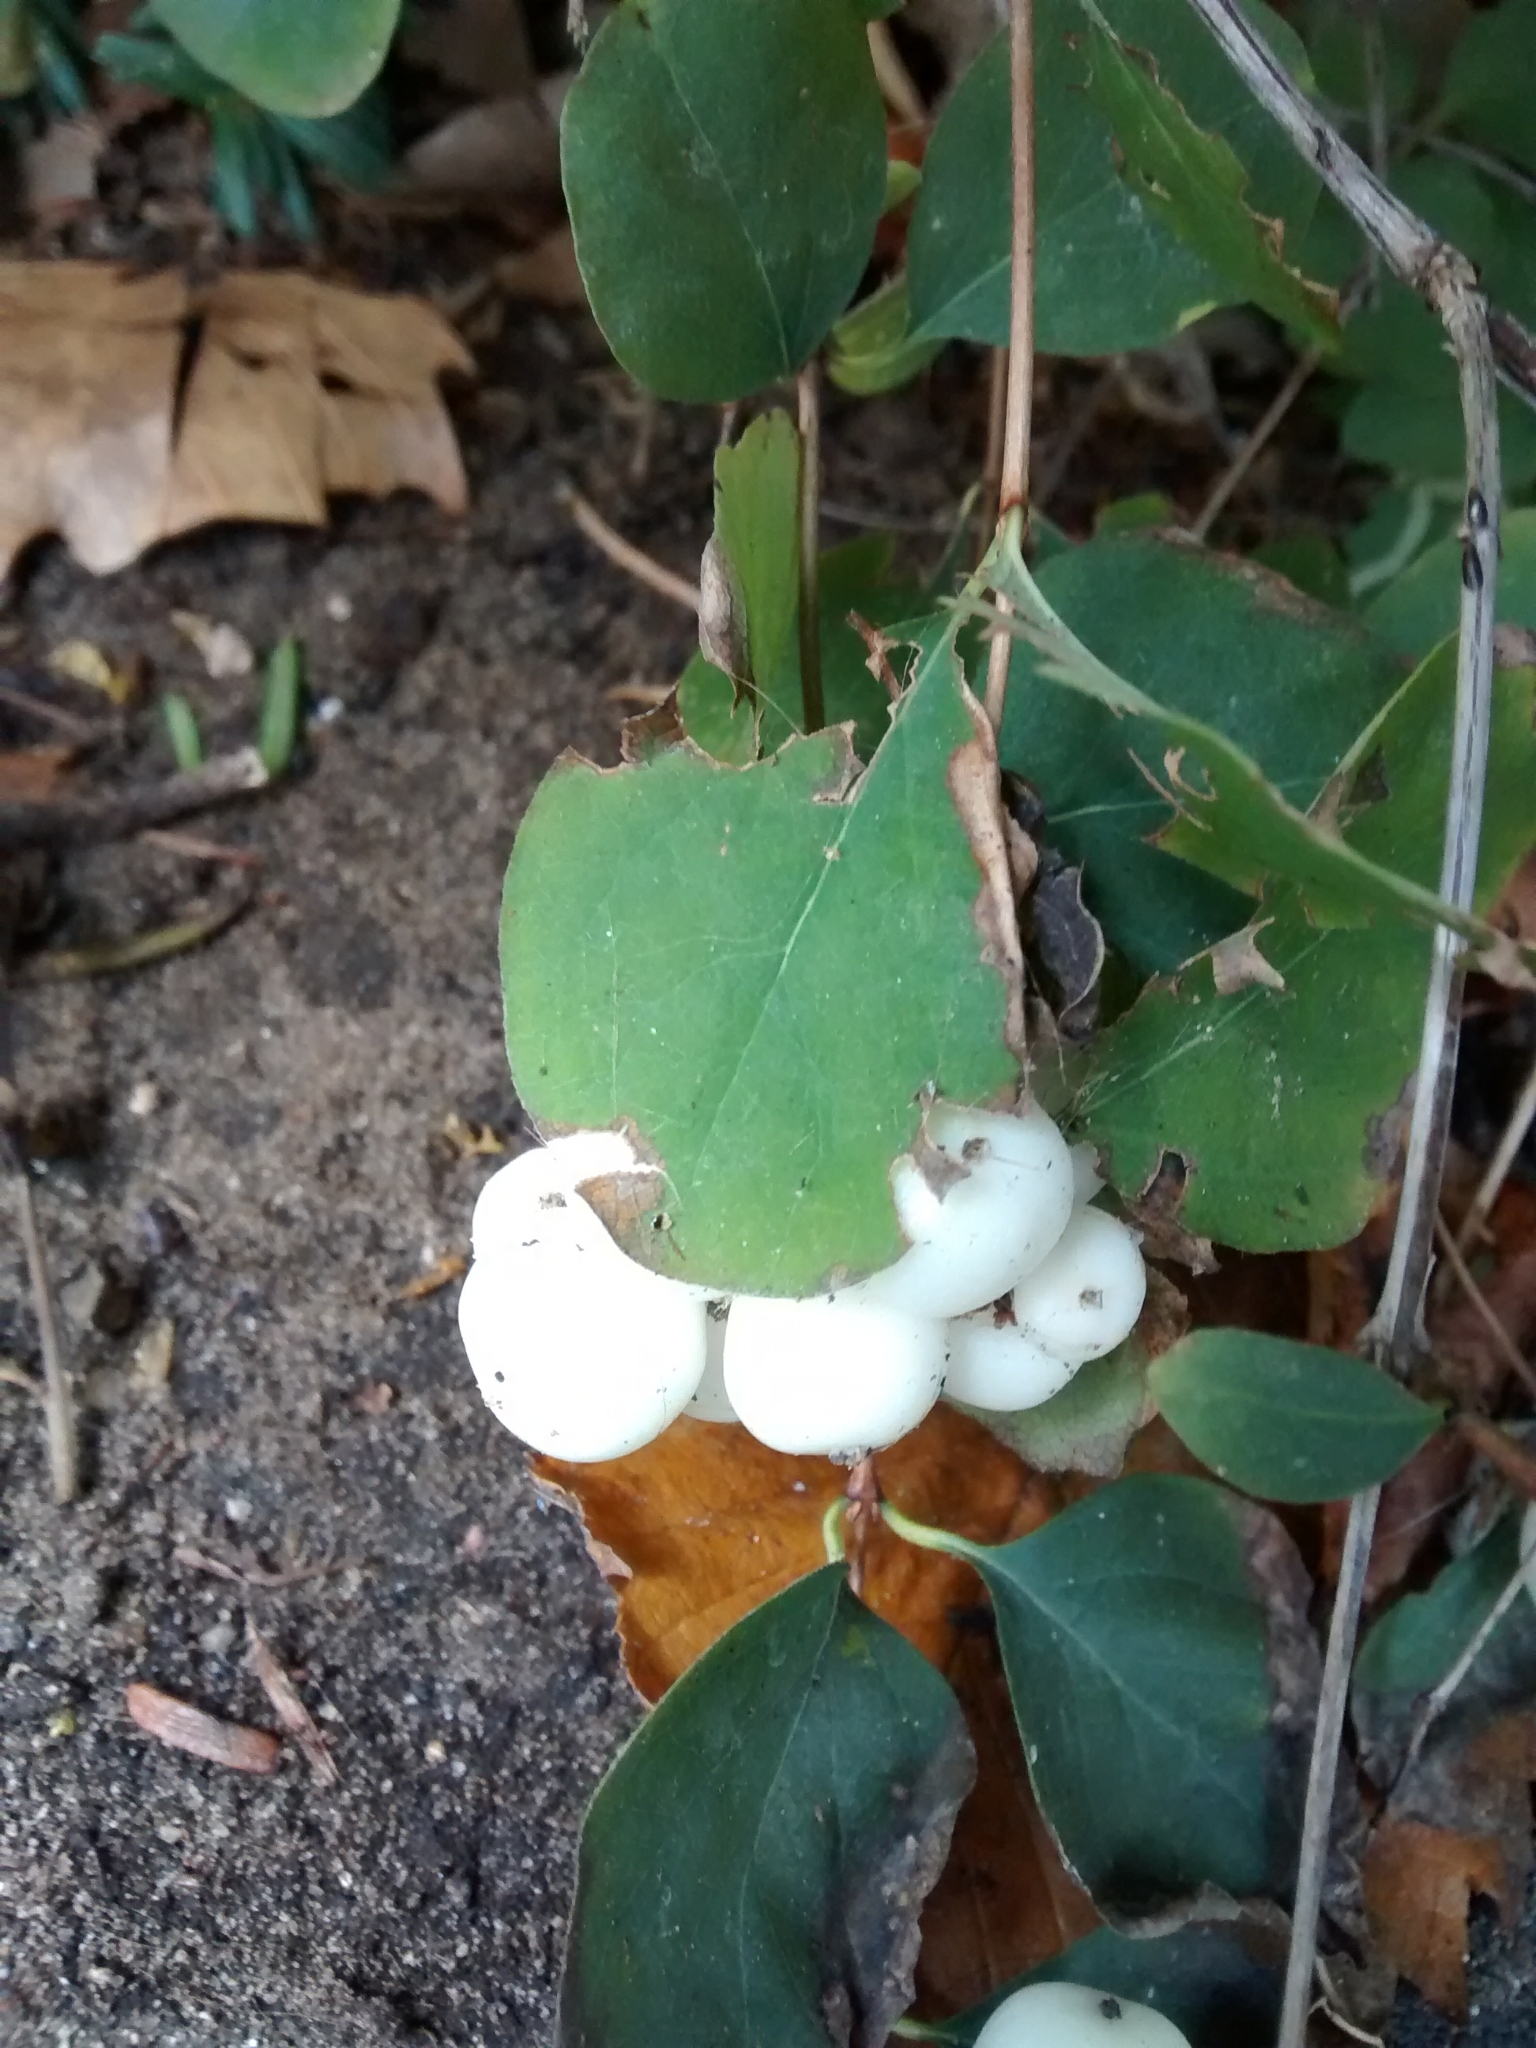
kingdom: Plantae
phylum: Tracheophyta
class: Magnoliopsida
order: Dipsacales
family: Caprifoliaceae
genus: Symphoricarpos
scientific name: Symphoricarpos albus
